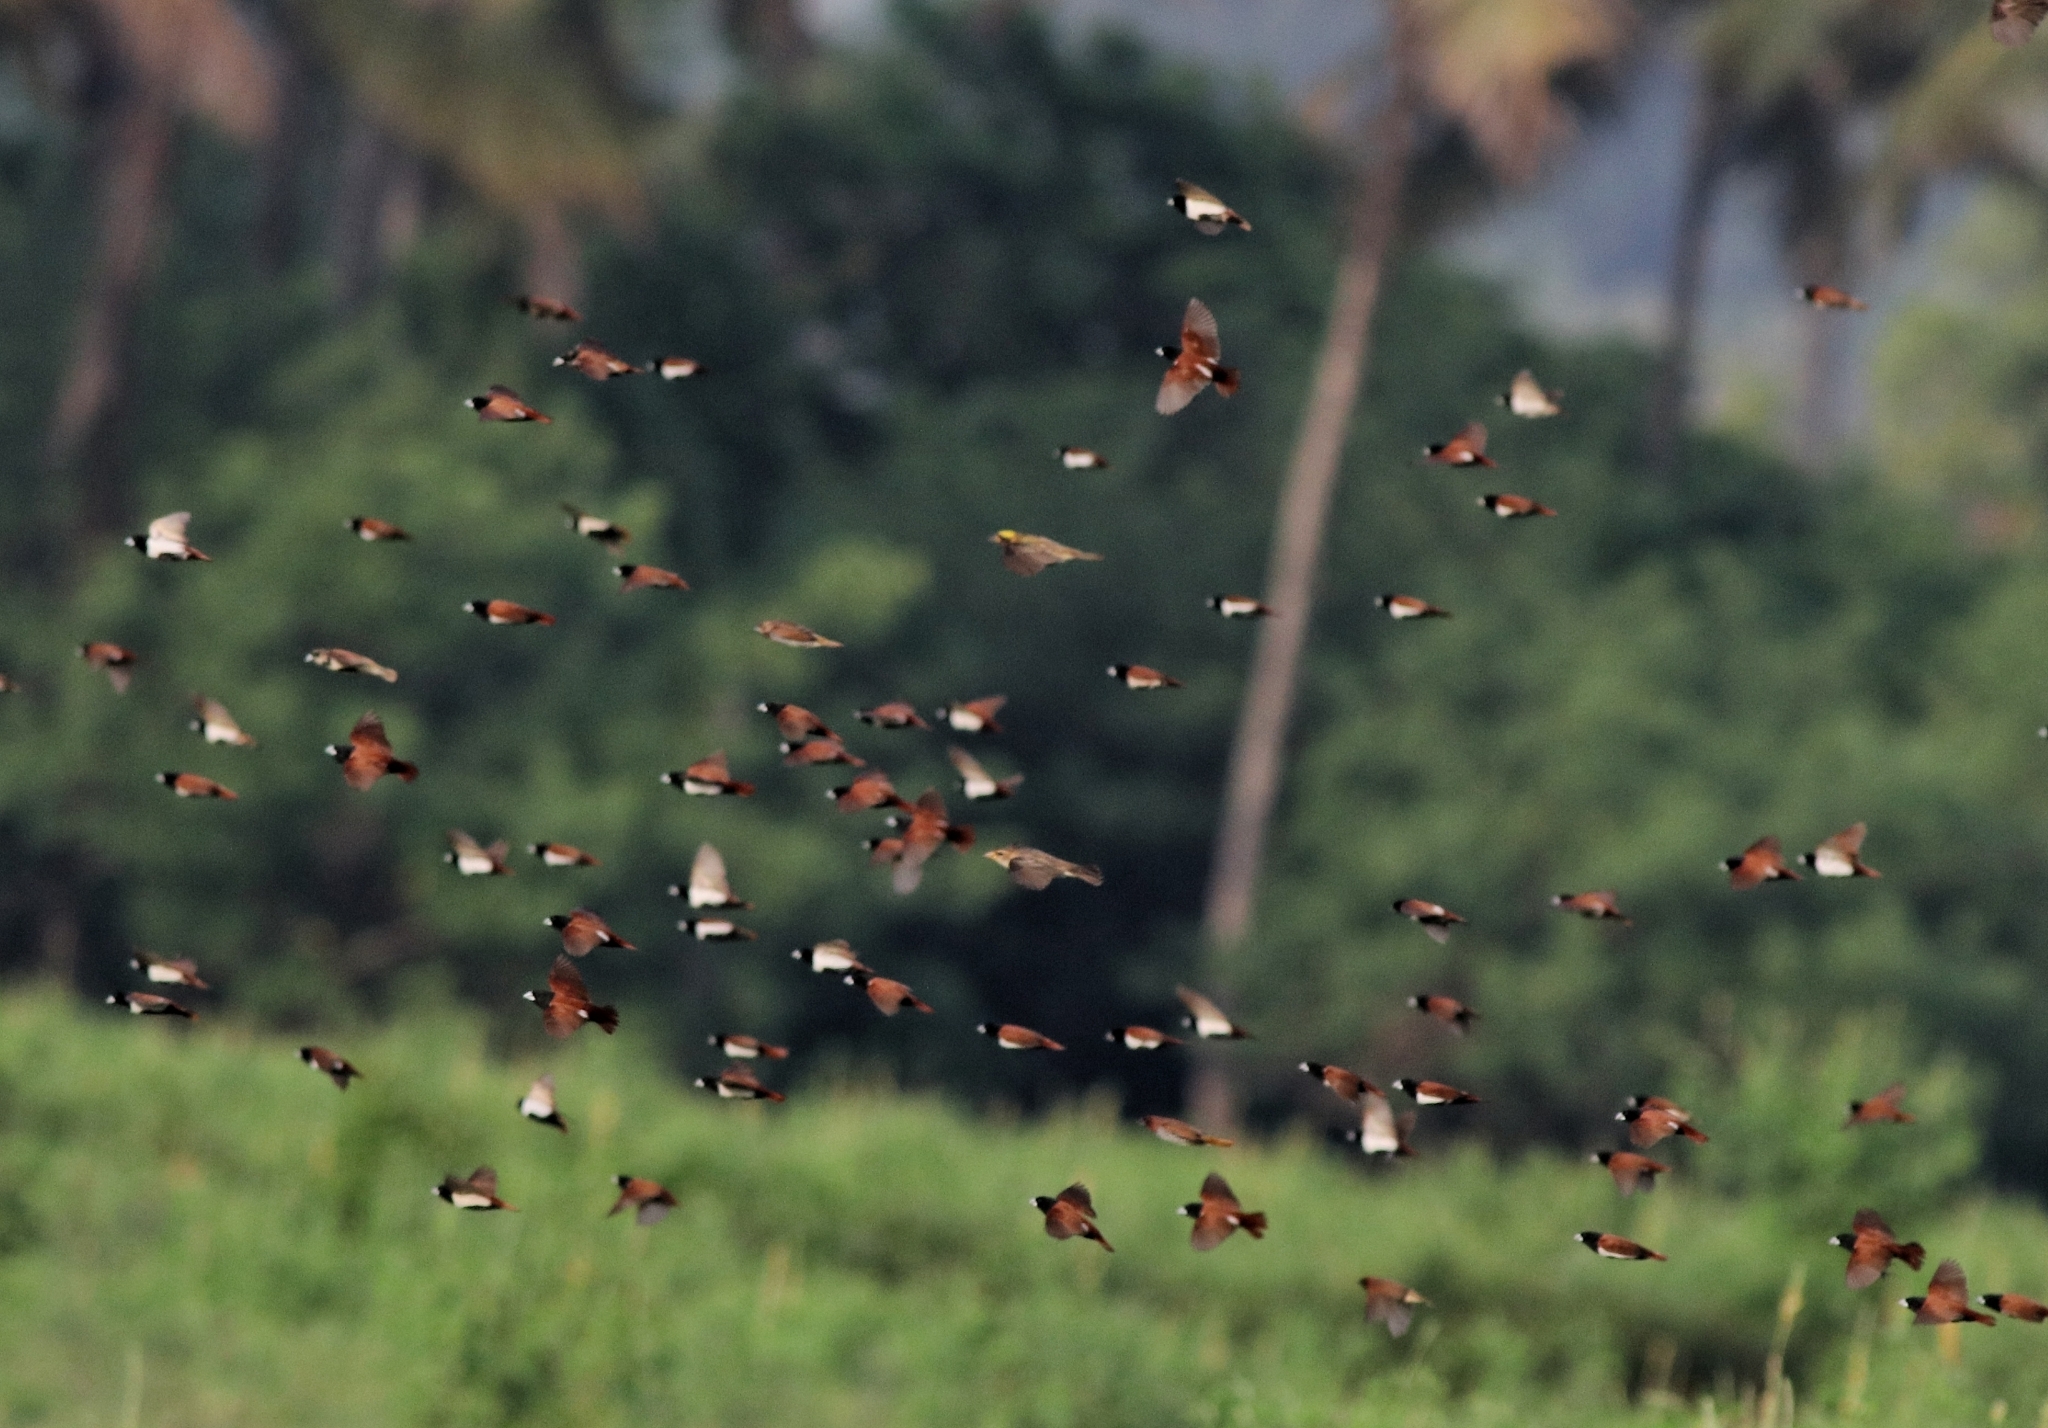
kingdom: Animalia
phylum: Chordata
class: Aves
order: Passeriformes
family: Estrildidae
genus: Lonchura
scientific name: Lonchura malacca
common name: Tricolored munia
